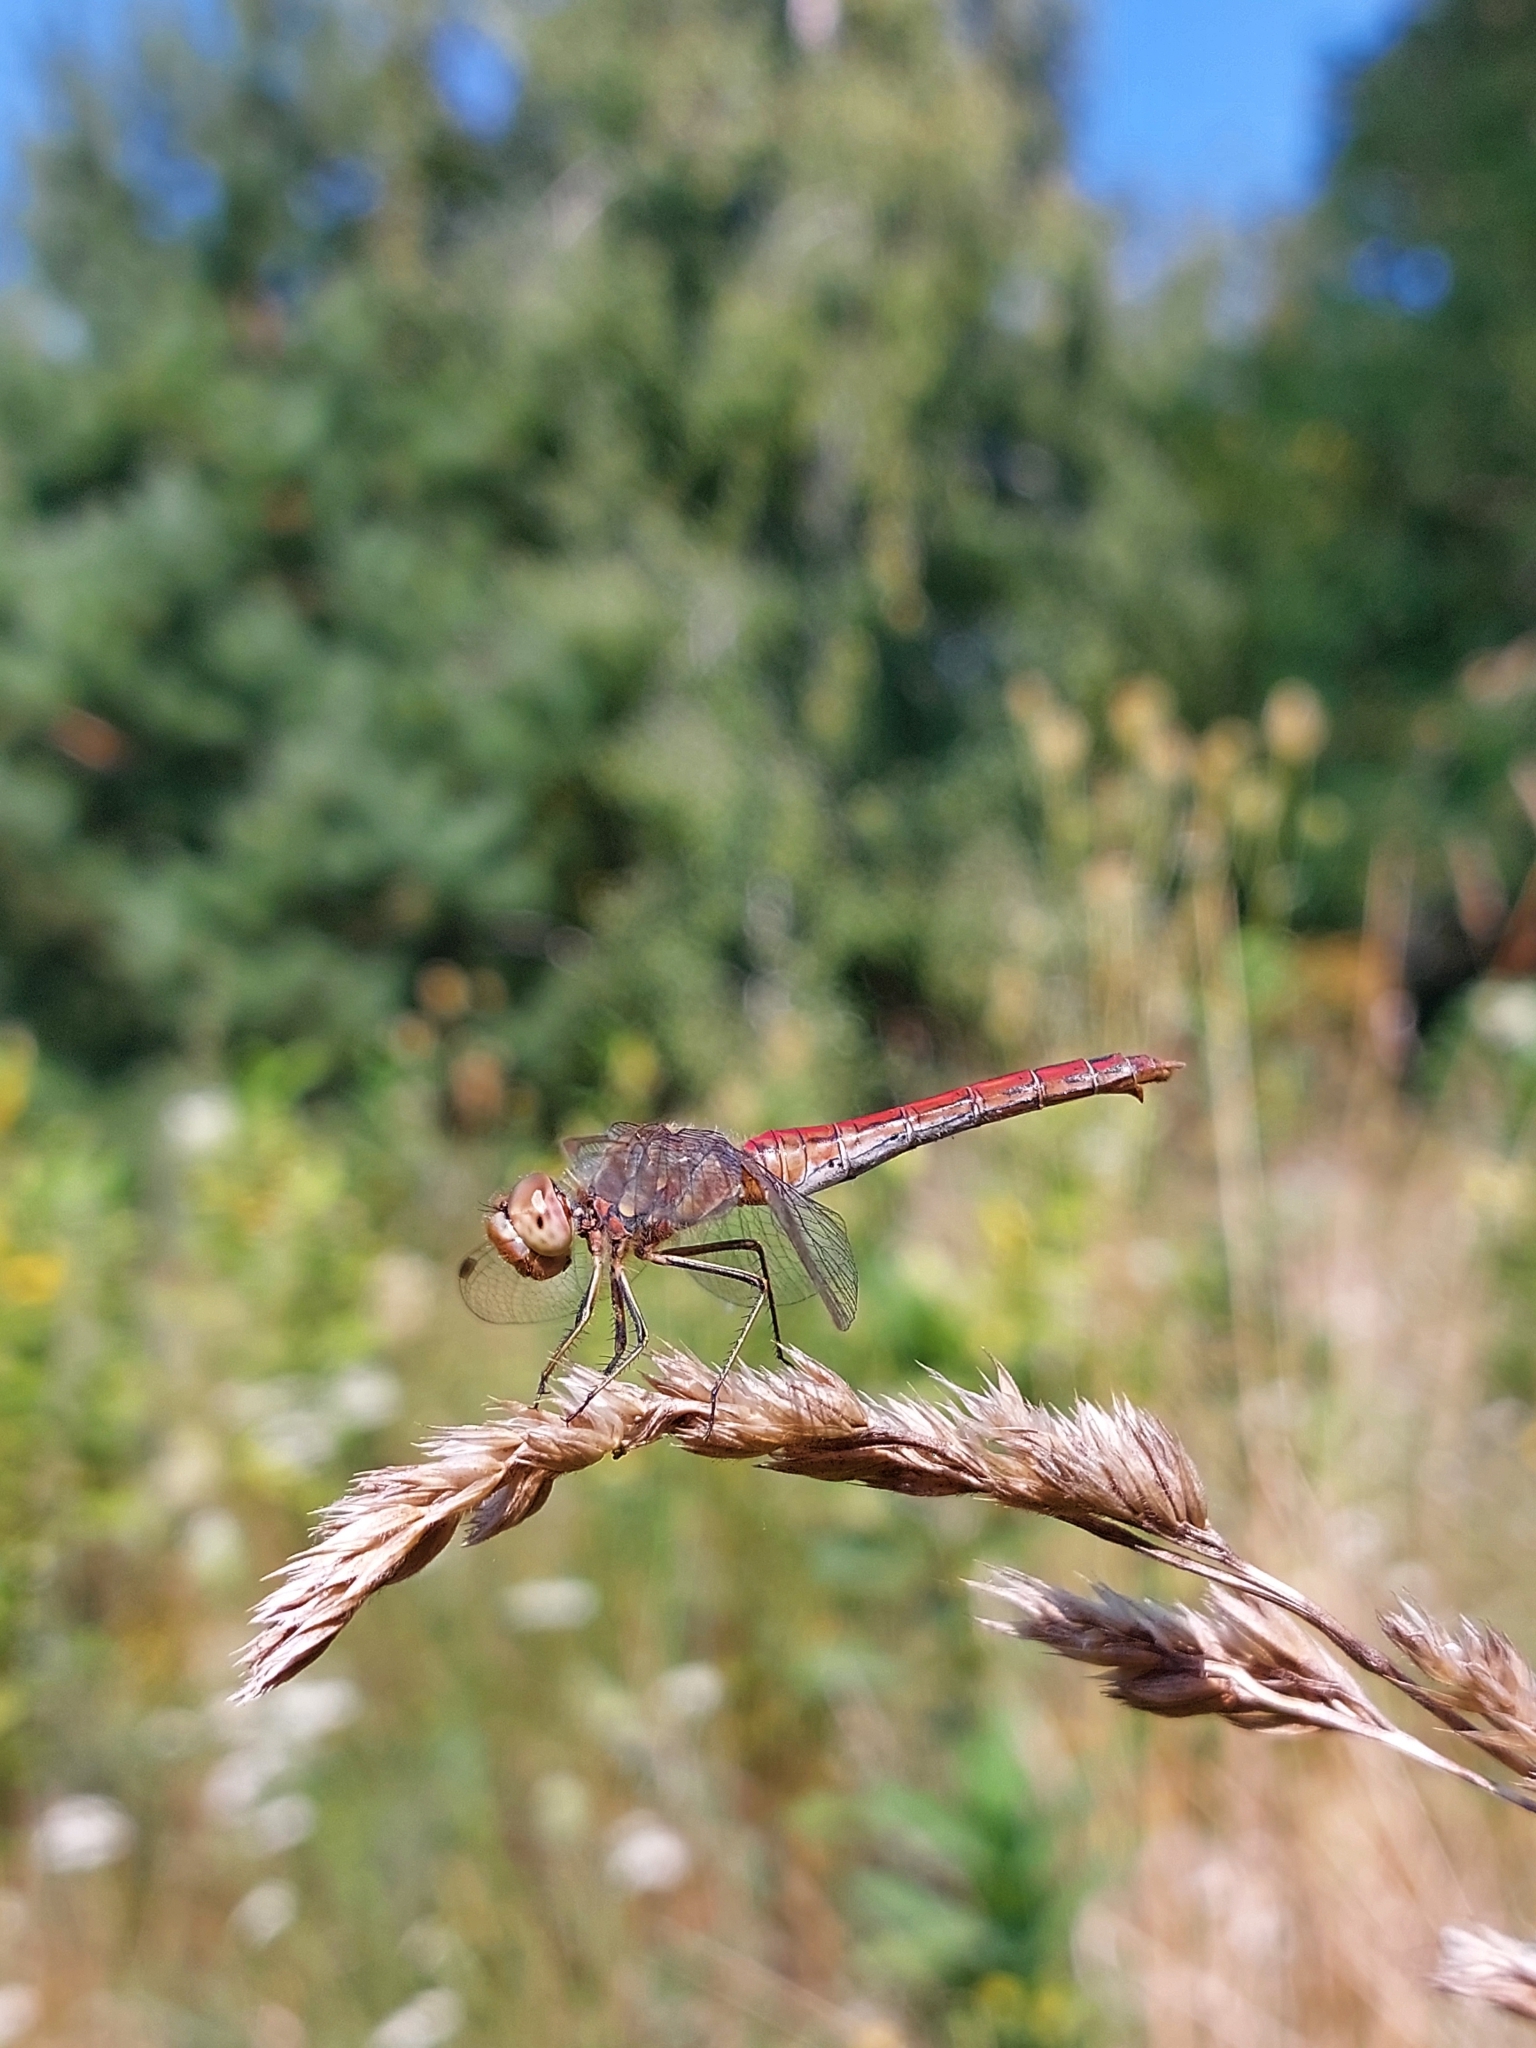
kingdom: Animalia
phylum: Arthropoda
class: Insecta
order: Odonata
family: Libellulidae
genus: Sympetrum
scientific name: Sympetrum vulgatum
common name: Vagrant darter
